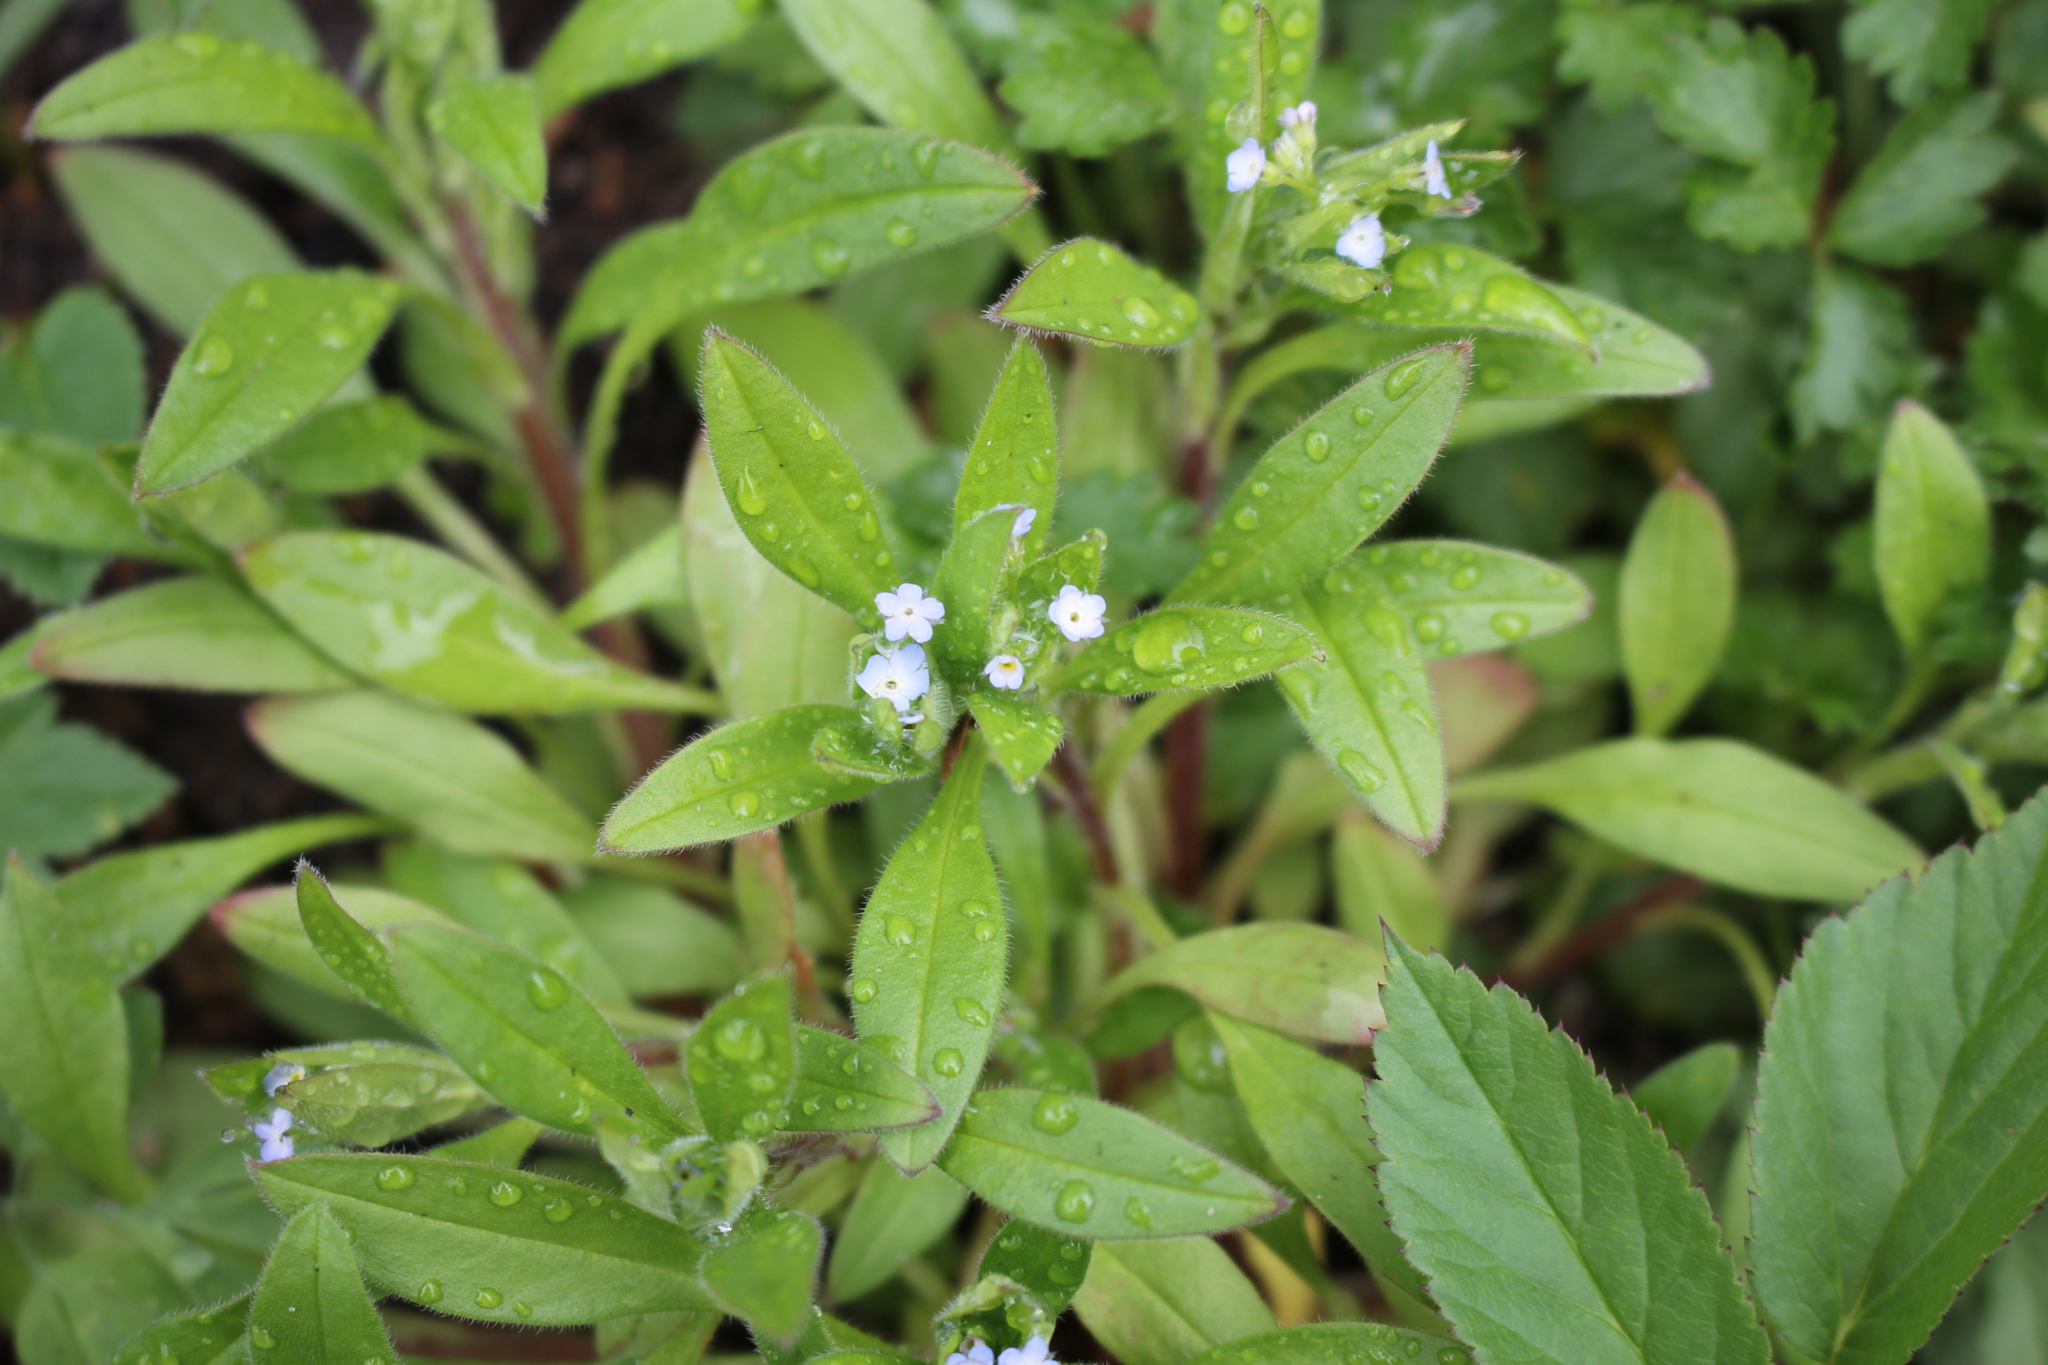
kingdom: Plantae
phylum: Tracheophyta
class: Magnoliopsida
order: Boraginales
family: Boraginaceae
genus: Myosotis
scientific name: Myosotis sparsiflora
